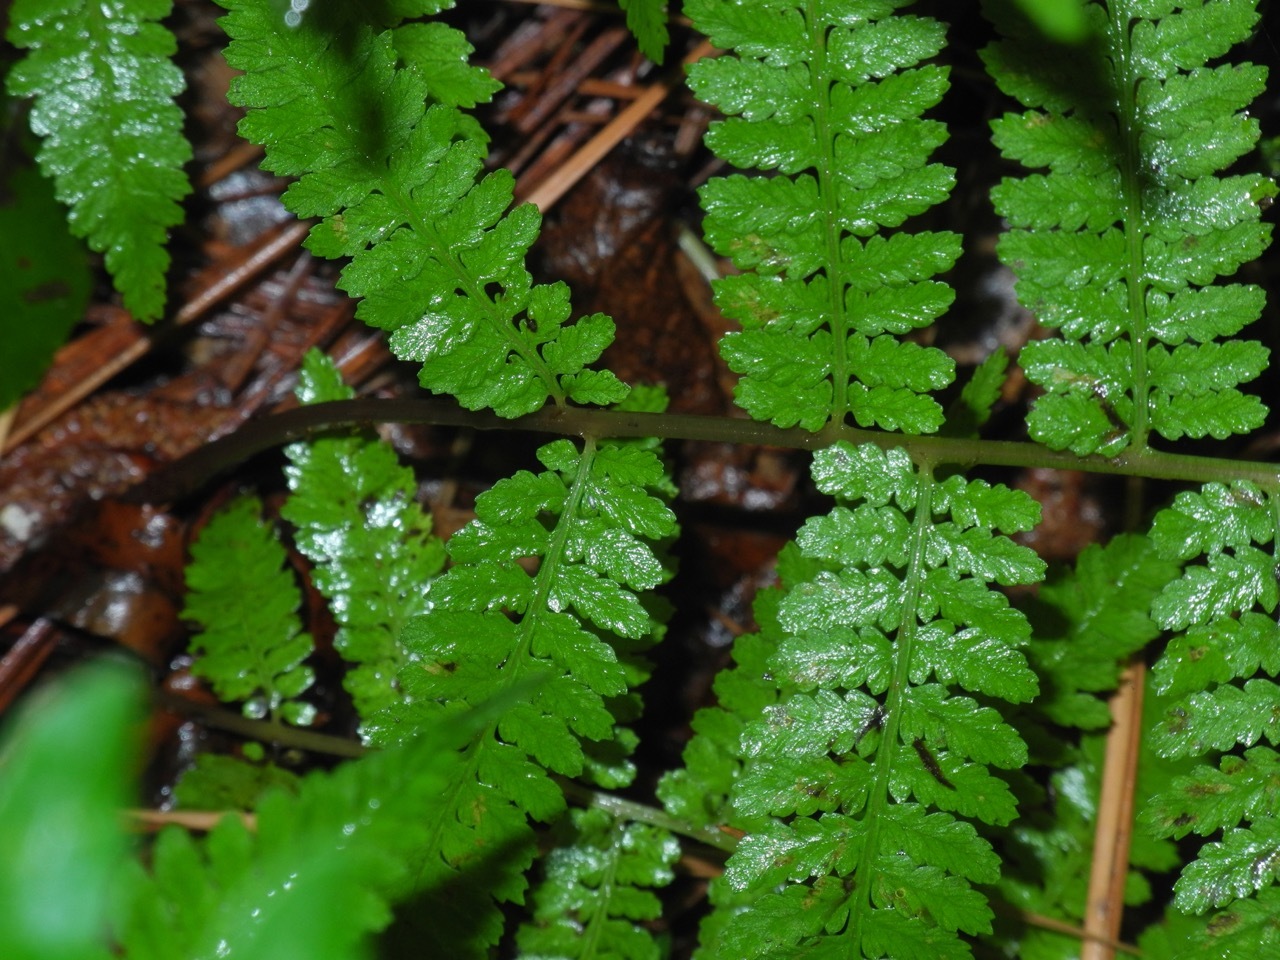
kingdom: Plantae
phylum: Tracheophyta
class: Polypodiopsida
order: Polypodiales
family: Athyriaceae
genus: Athyrium
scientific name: Athyrium asplenioides
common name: Southern lady fern
